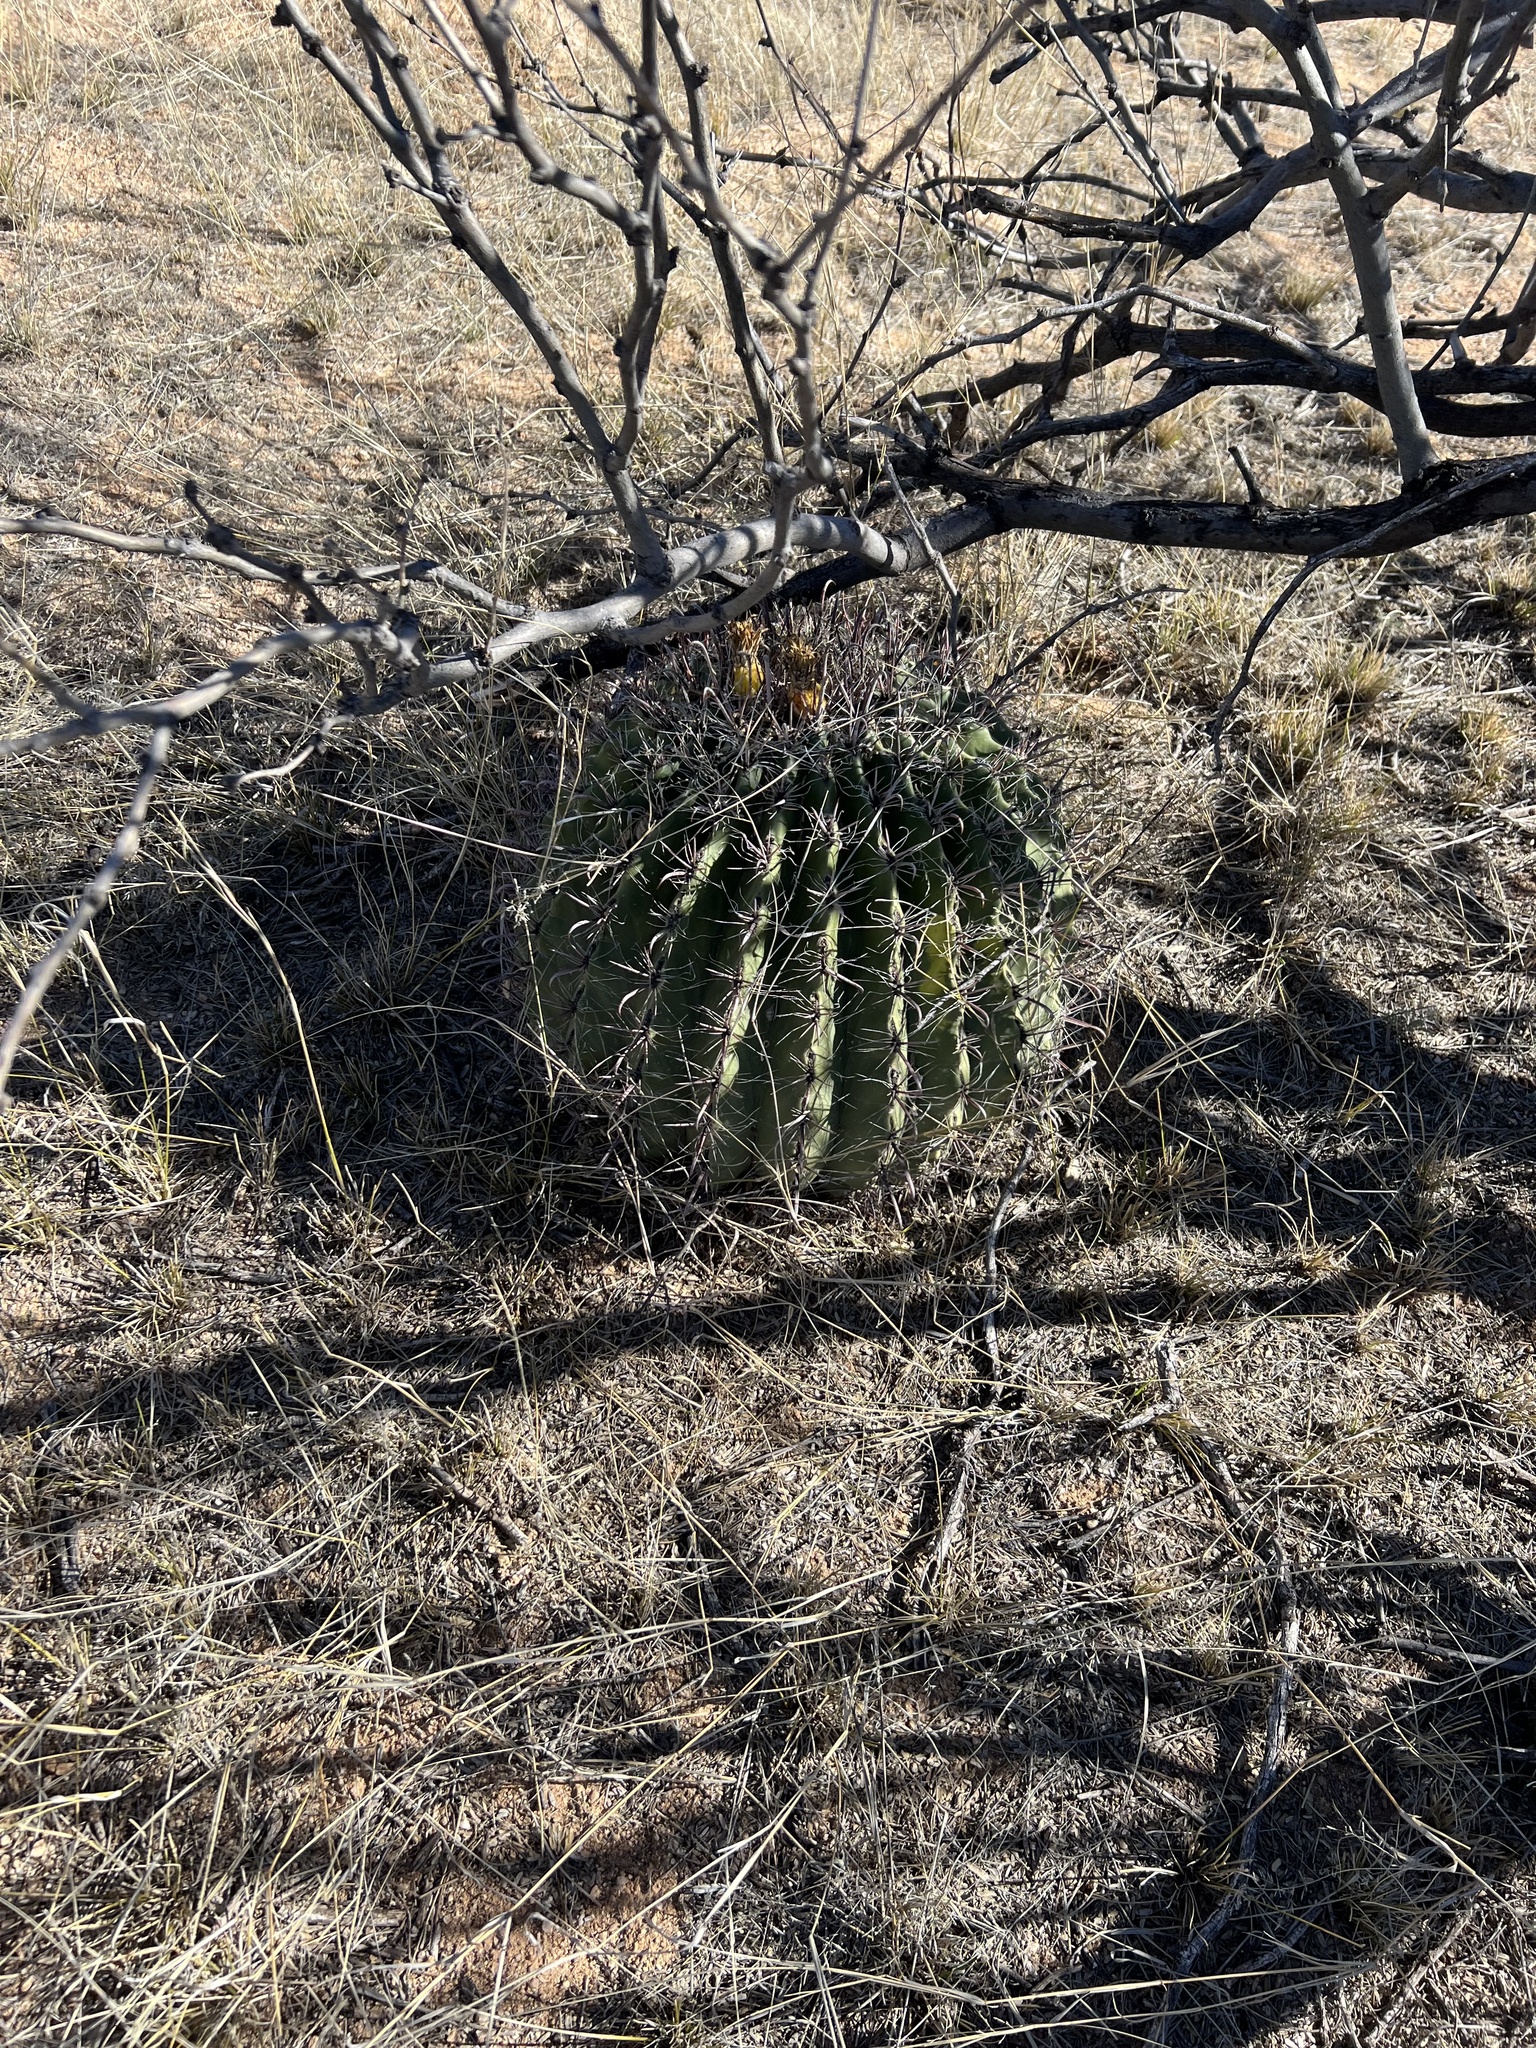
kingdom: Plantae
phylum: Tracheophyta
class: Magnoliopsida
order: Caryophyllales
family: Cactaceae
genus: Ferocactus
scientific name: Ferocactus wislizeni
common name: Candy barrel cactus
